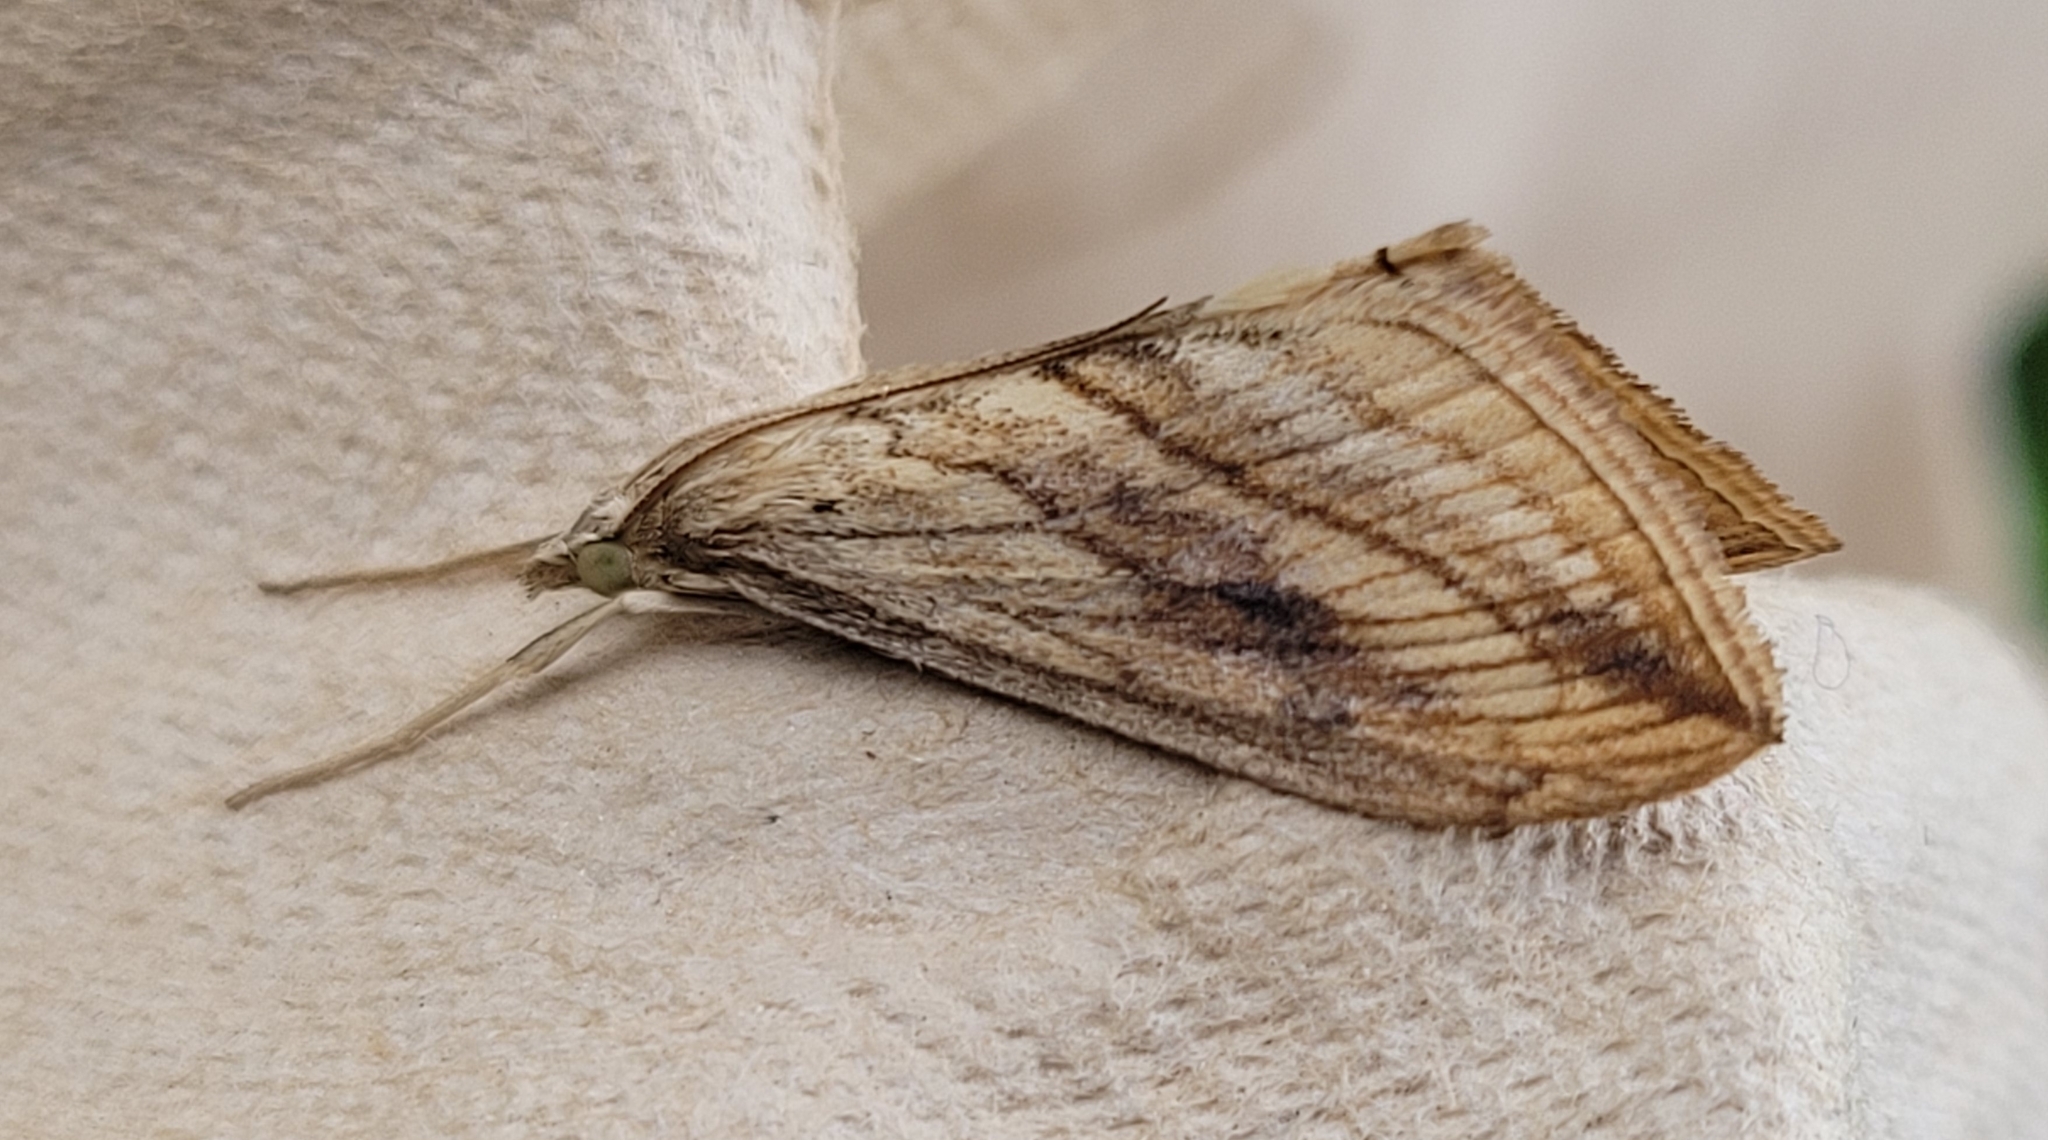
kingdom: Animalia
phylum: Arthropoda
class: Insecta
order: Lepidoptera
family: Crambidae
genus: Evergestis
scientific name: Evergestis forficalis
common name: Garden pebble
